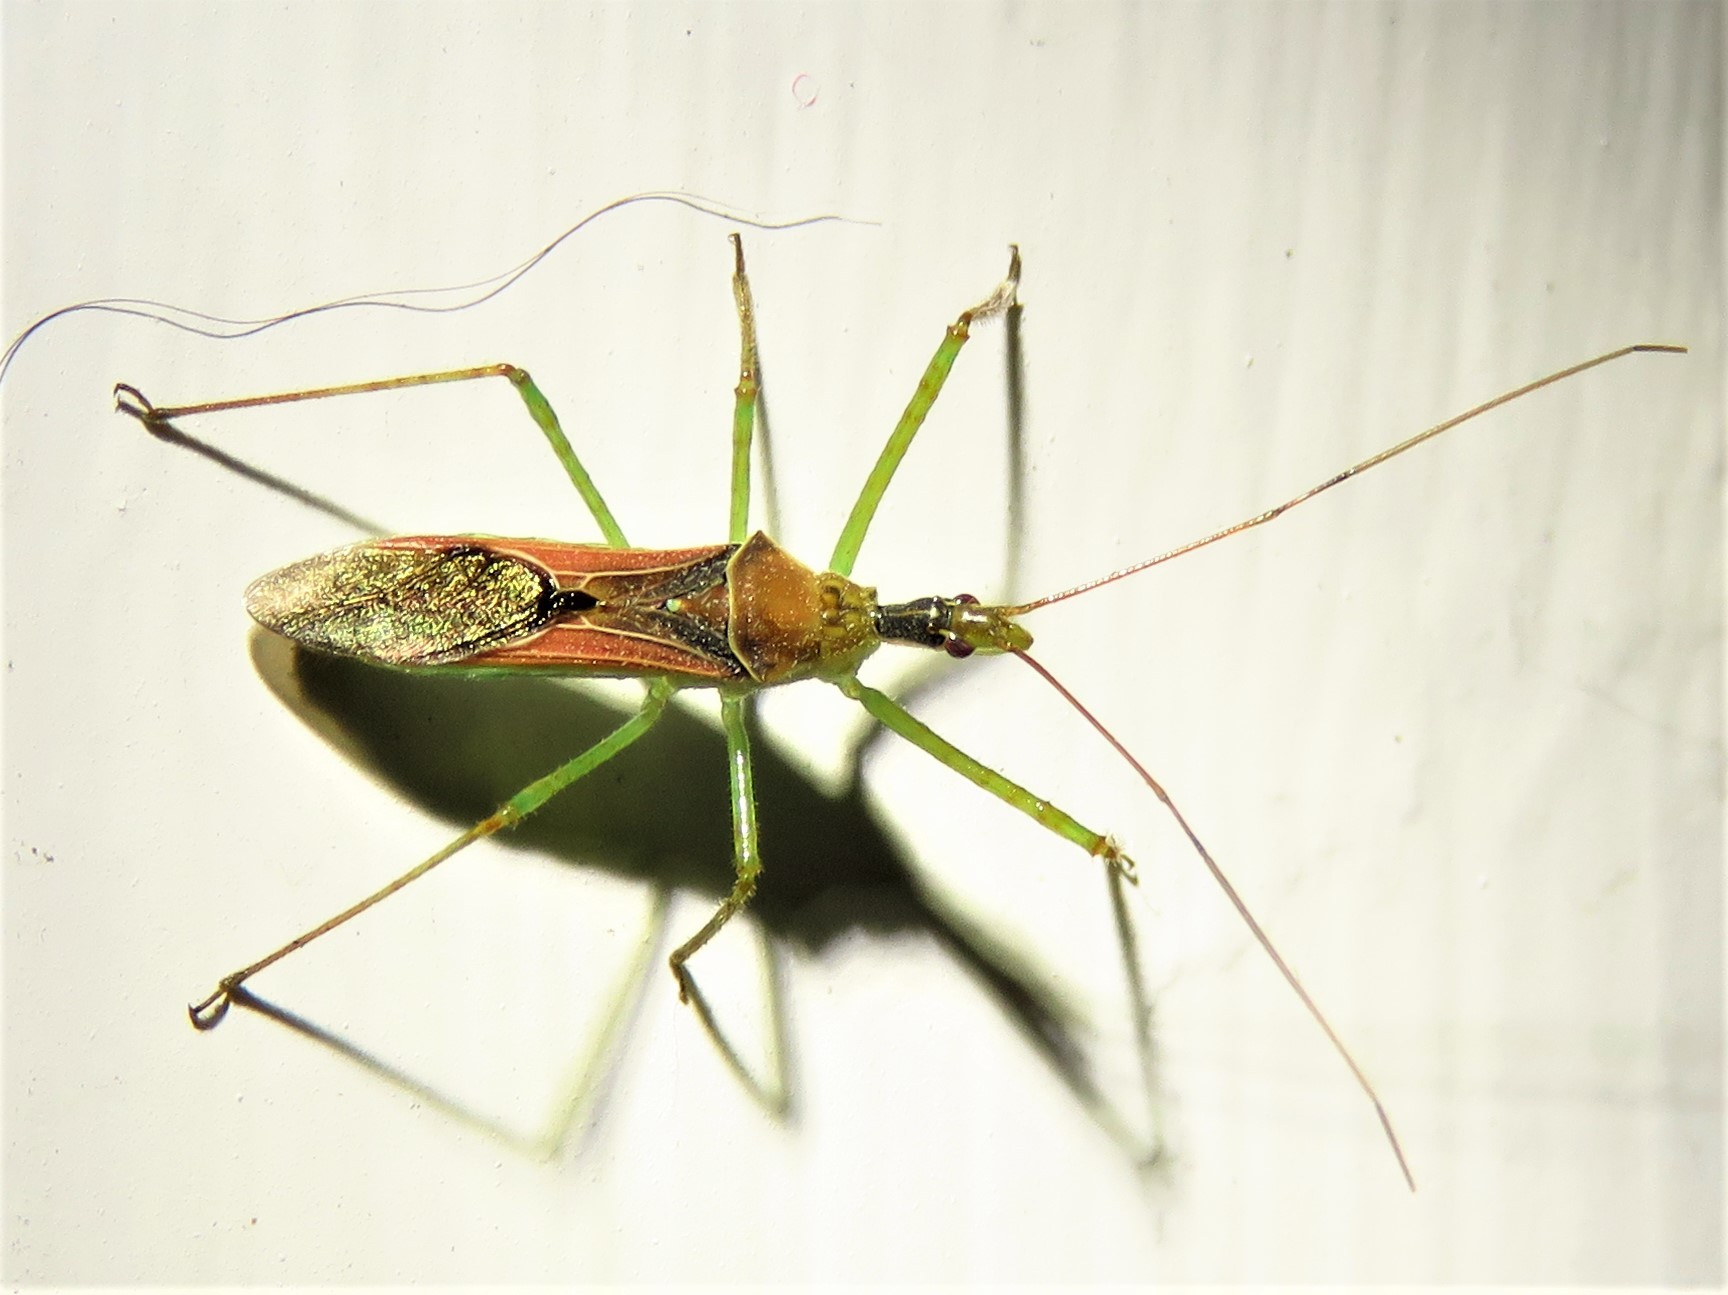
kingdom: Animalia
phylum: Arthropoda
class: Insecta
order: Hemiptera
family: Reduviidae
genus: Zelus
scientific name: Zelus renardii
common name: Assassin bug
